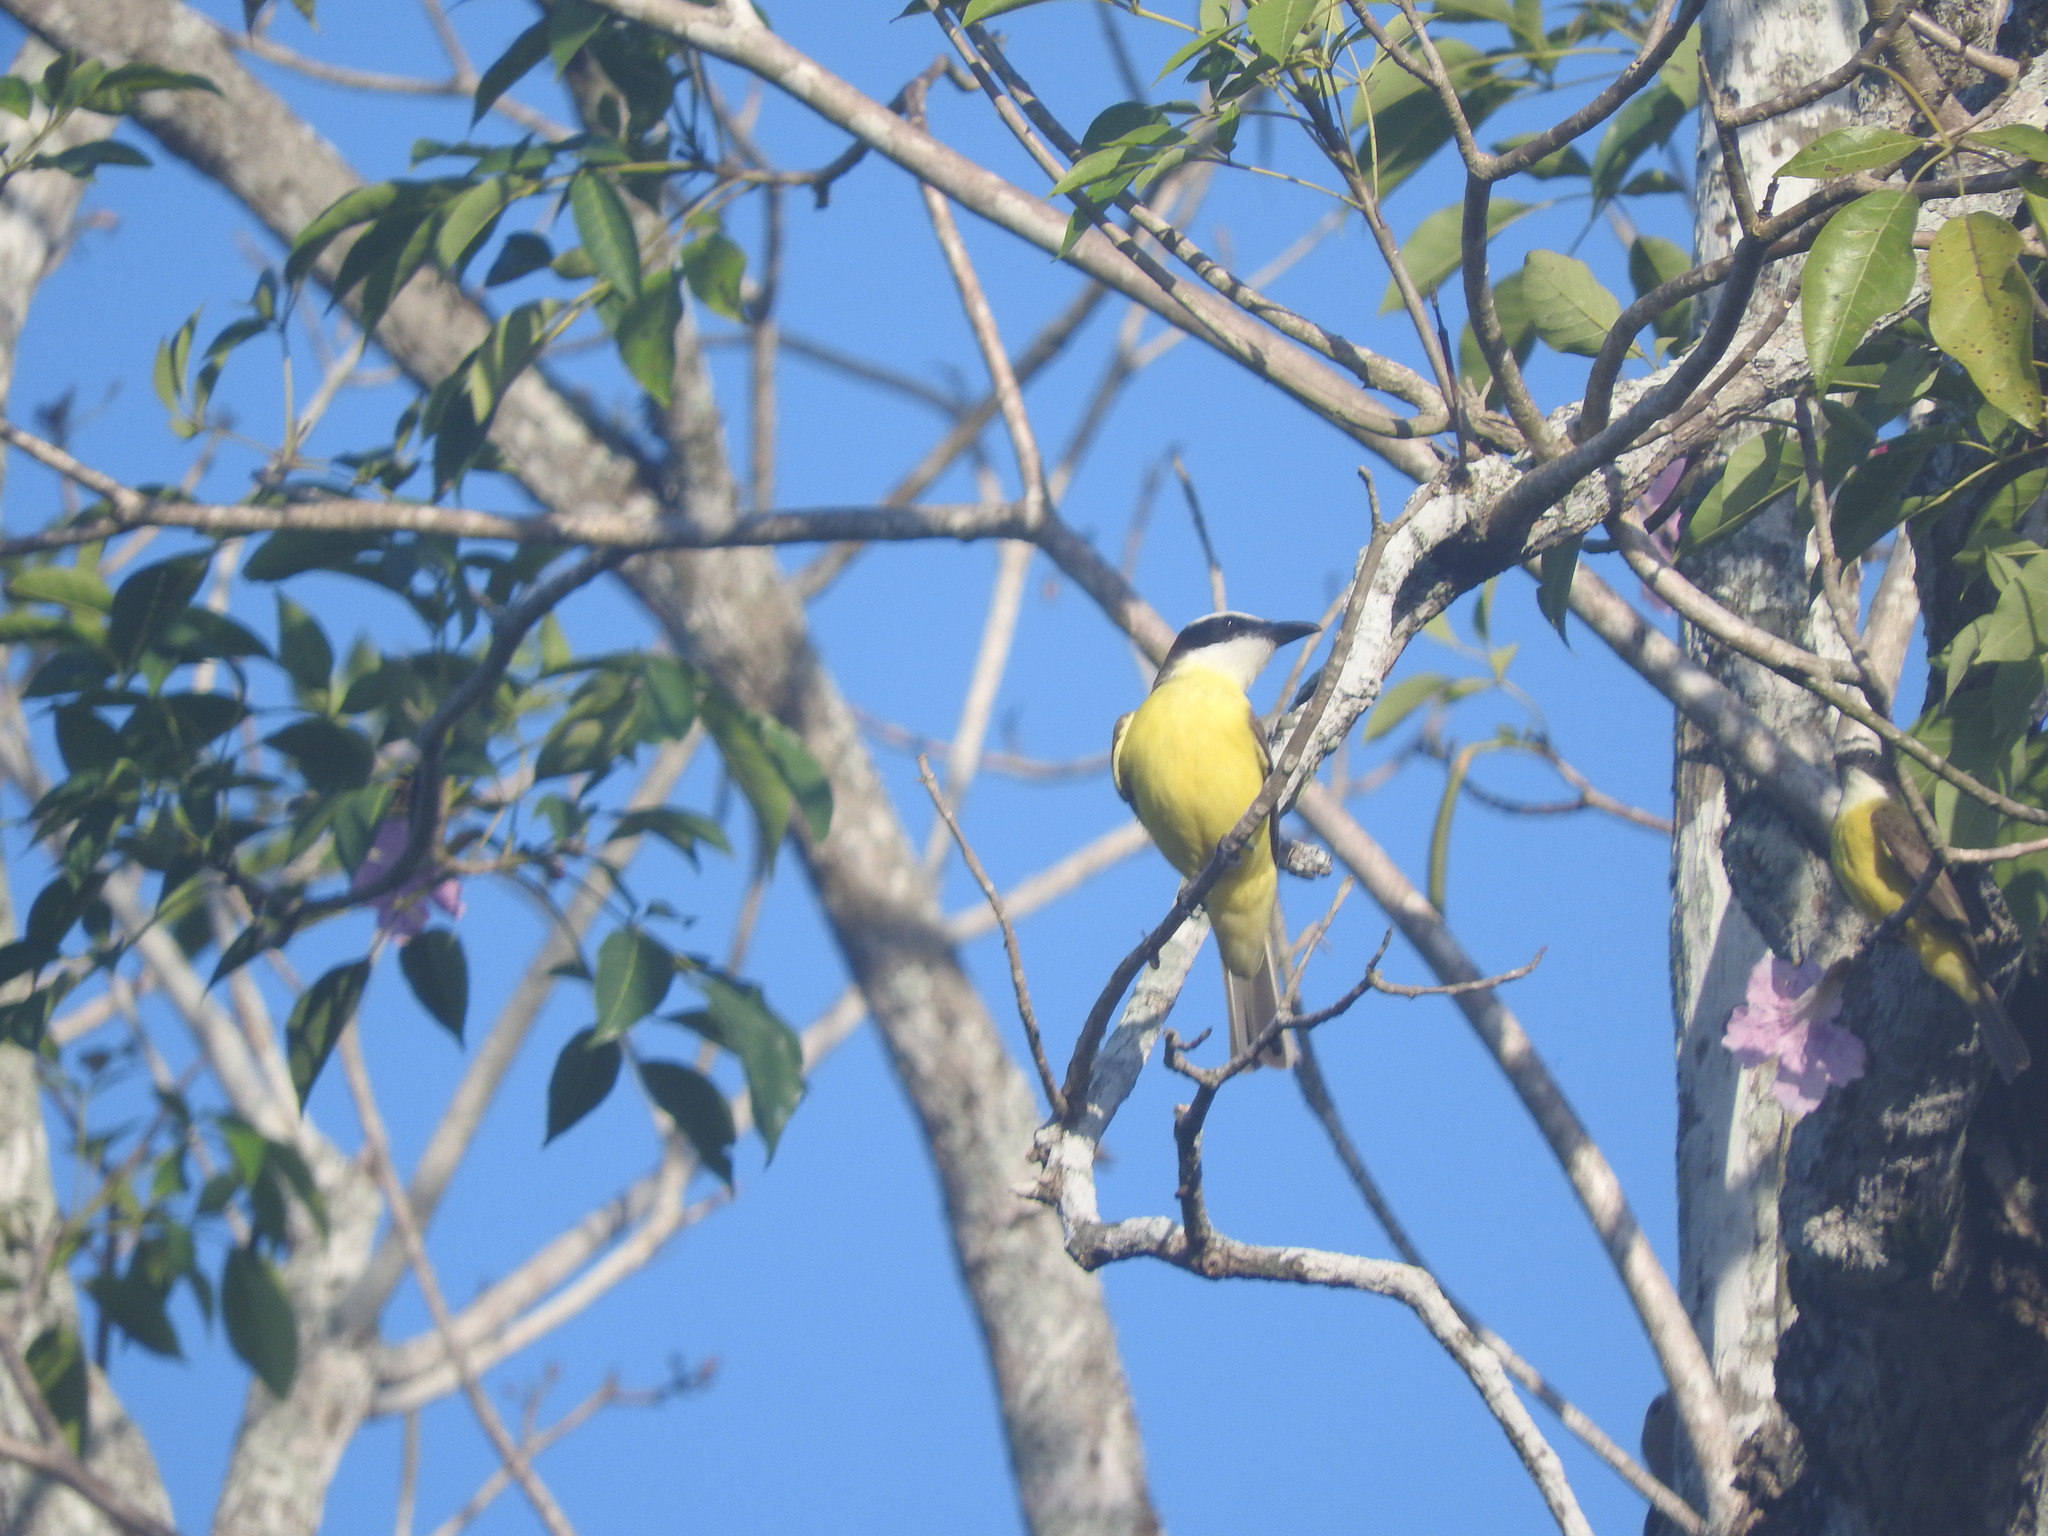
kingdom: Animalia
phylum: Chordata
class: Aves
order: Passeriformes
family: Tyrannidae
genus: Megarynchus
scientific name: Megarynchus pitangua
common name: Boat-billed flycatcher
